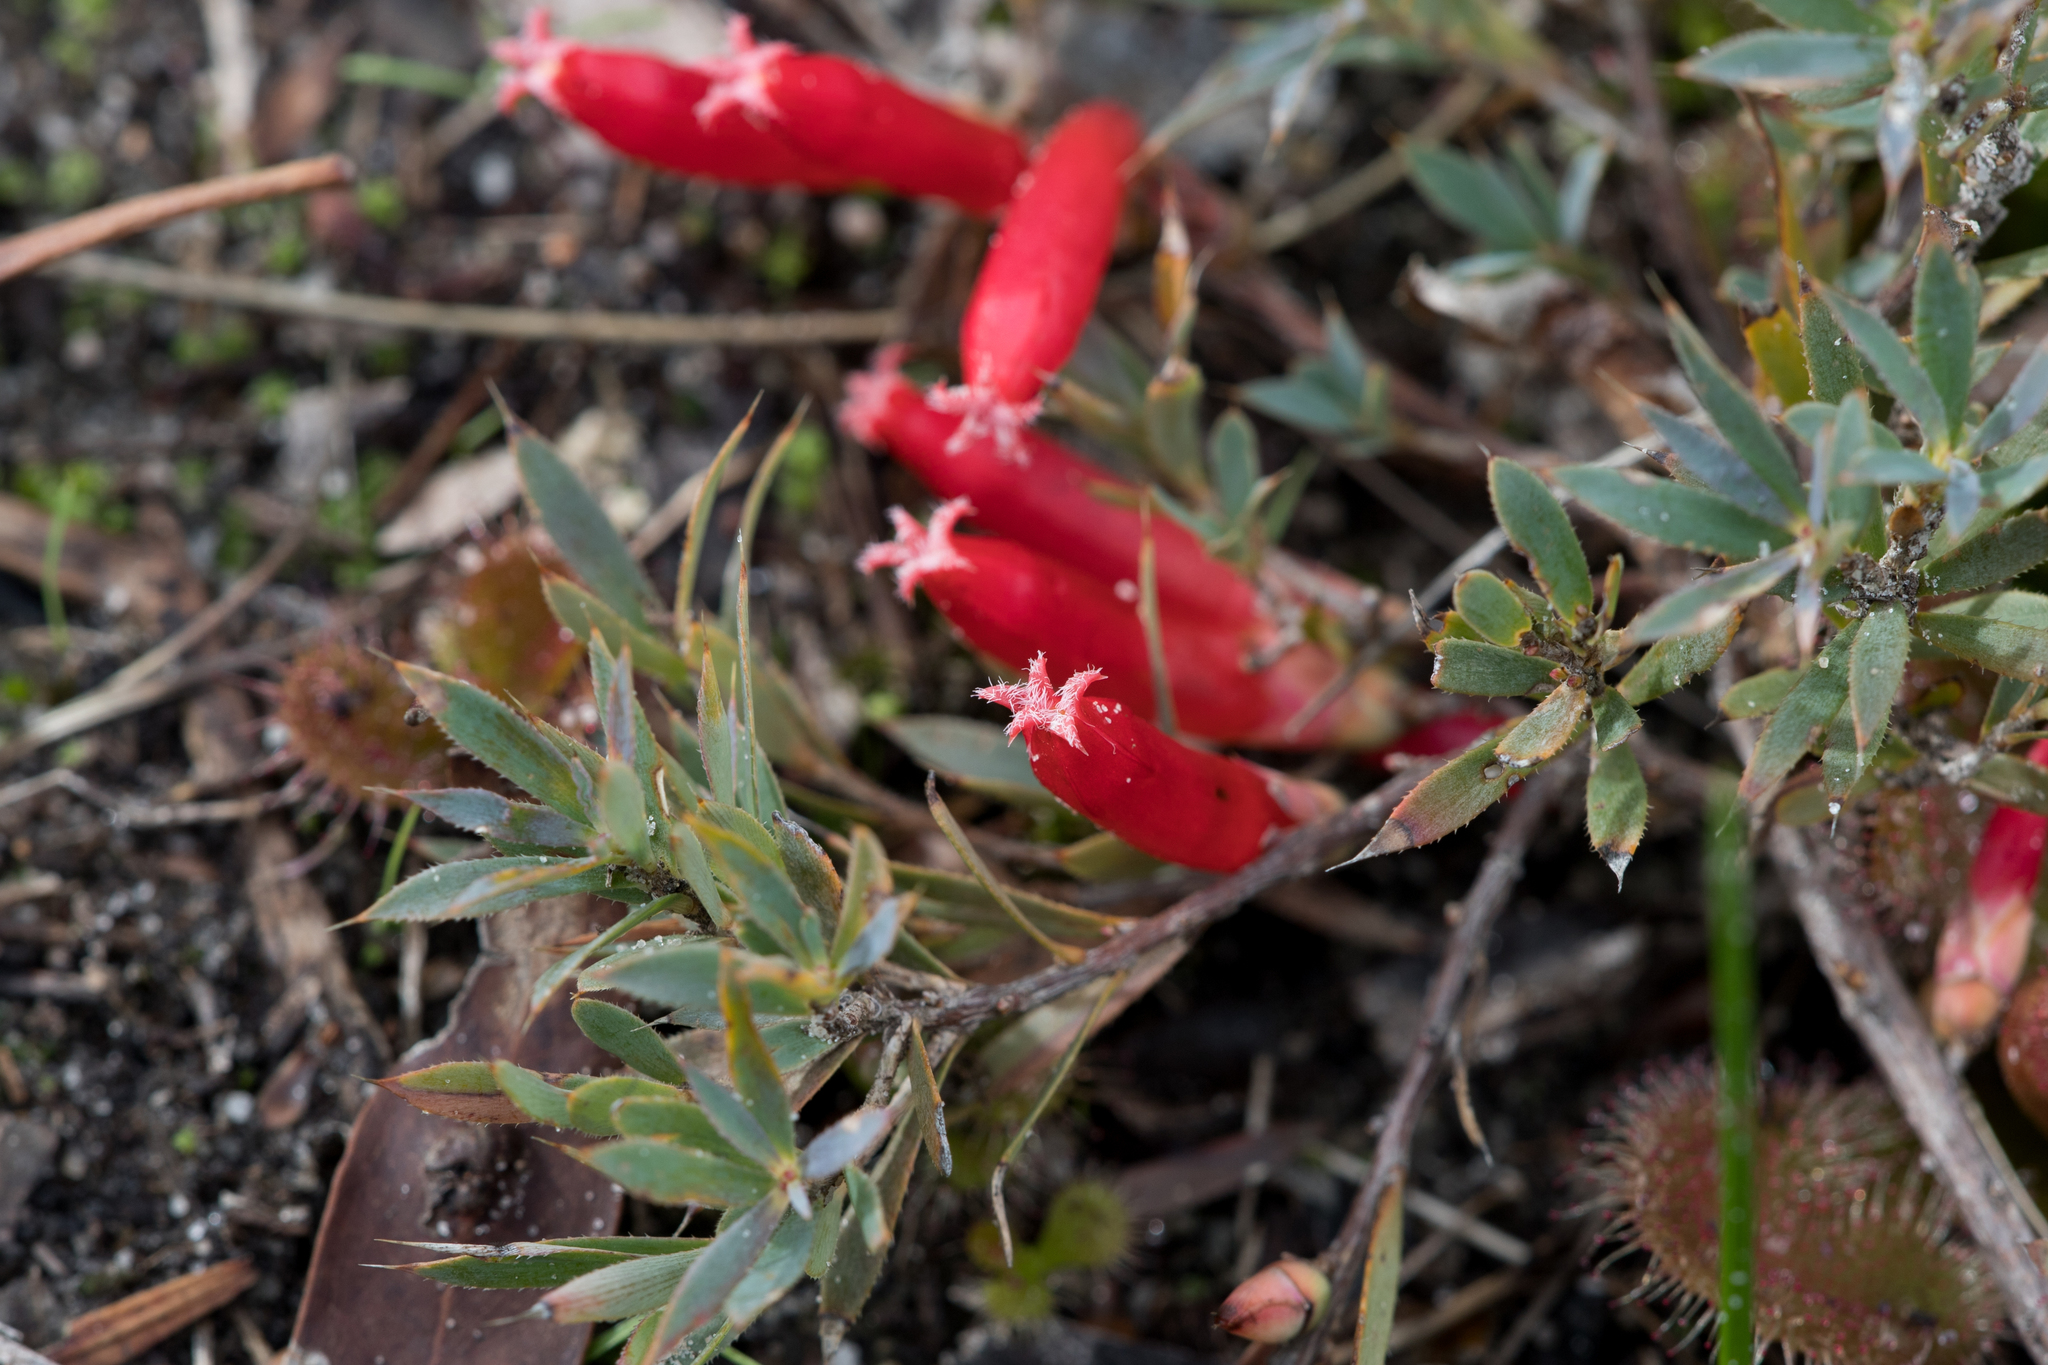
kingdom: Plantae
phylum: Tracheophyta
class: Magnoliopsida
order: Ericales
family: Ericaceae
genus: Styphelia
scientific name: Styphelia humifusa
